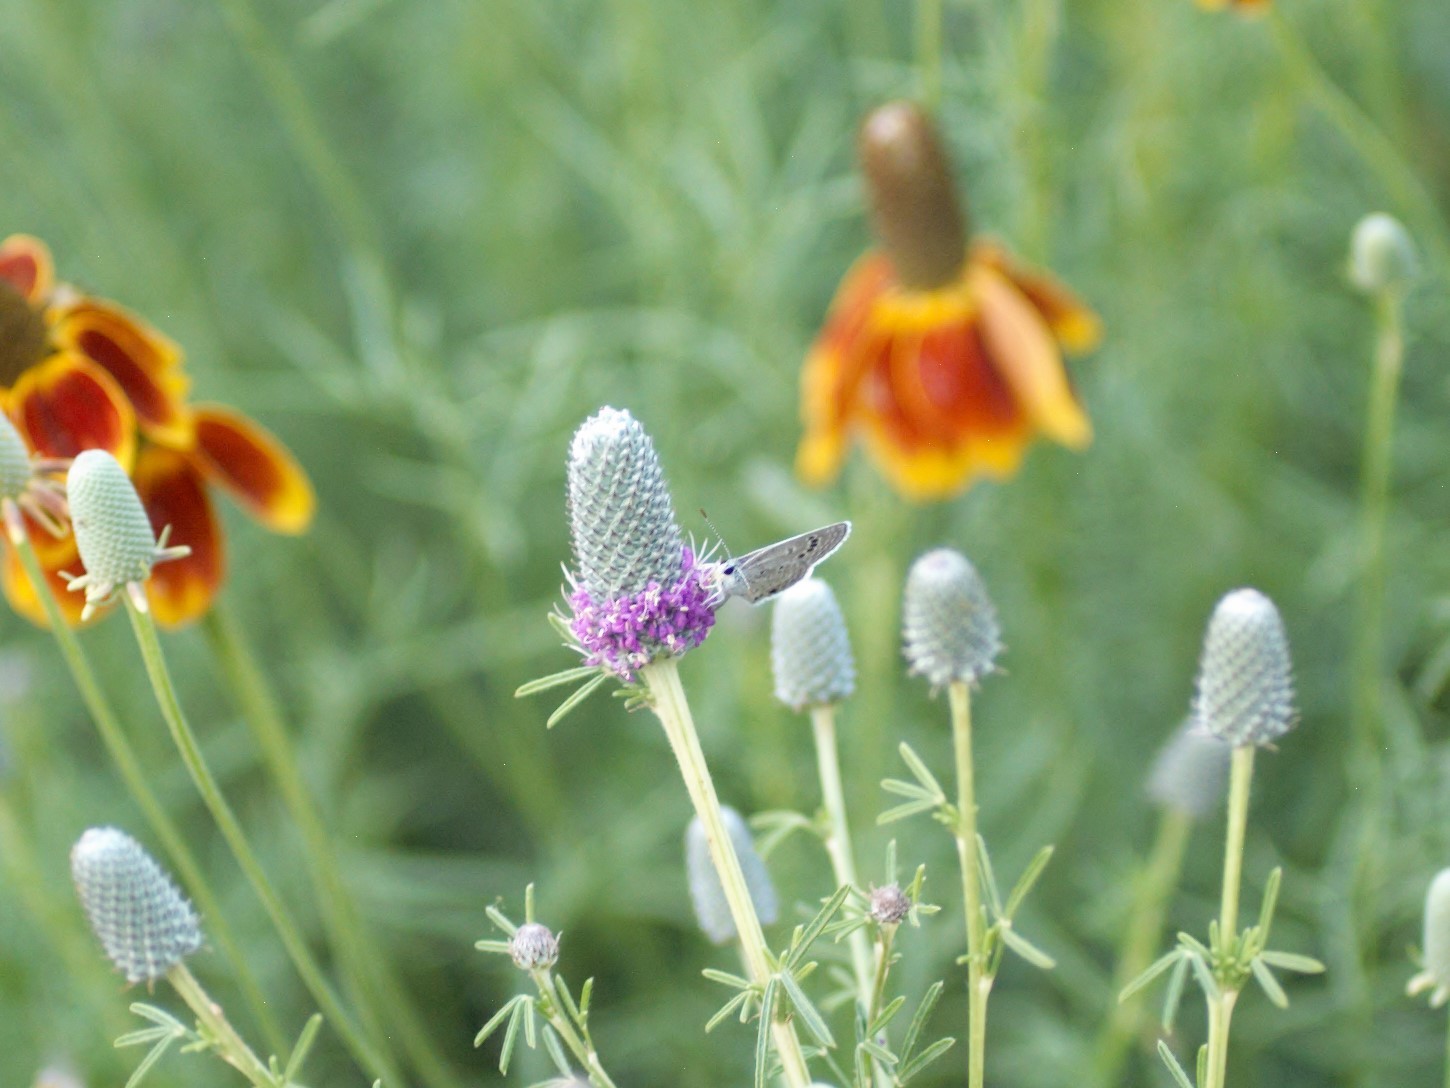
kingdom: Animalia
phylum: Arthropoda
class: Insecta
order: Lepidoptera
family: Lycaenidae
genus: Echinargus
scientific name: Echinargus isola
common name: Reakirt's blue
